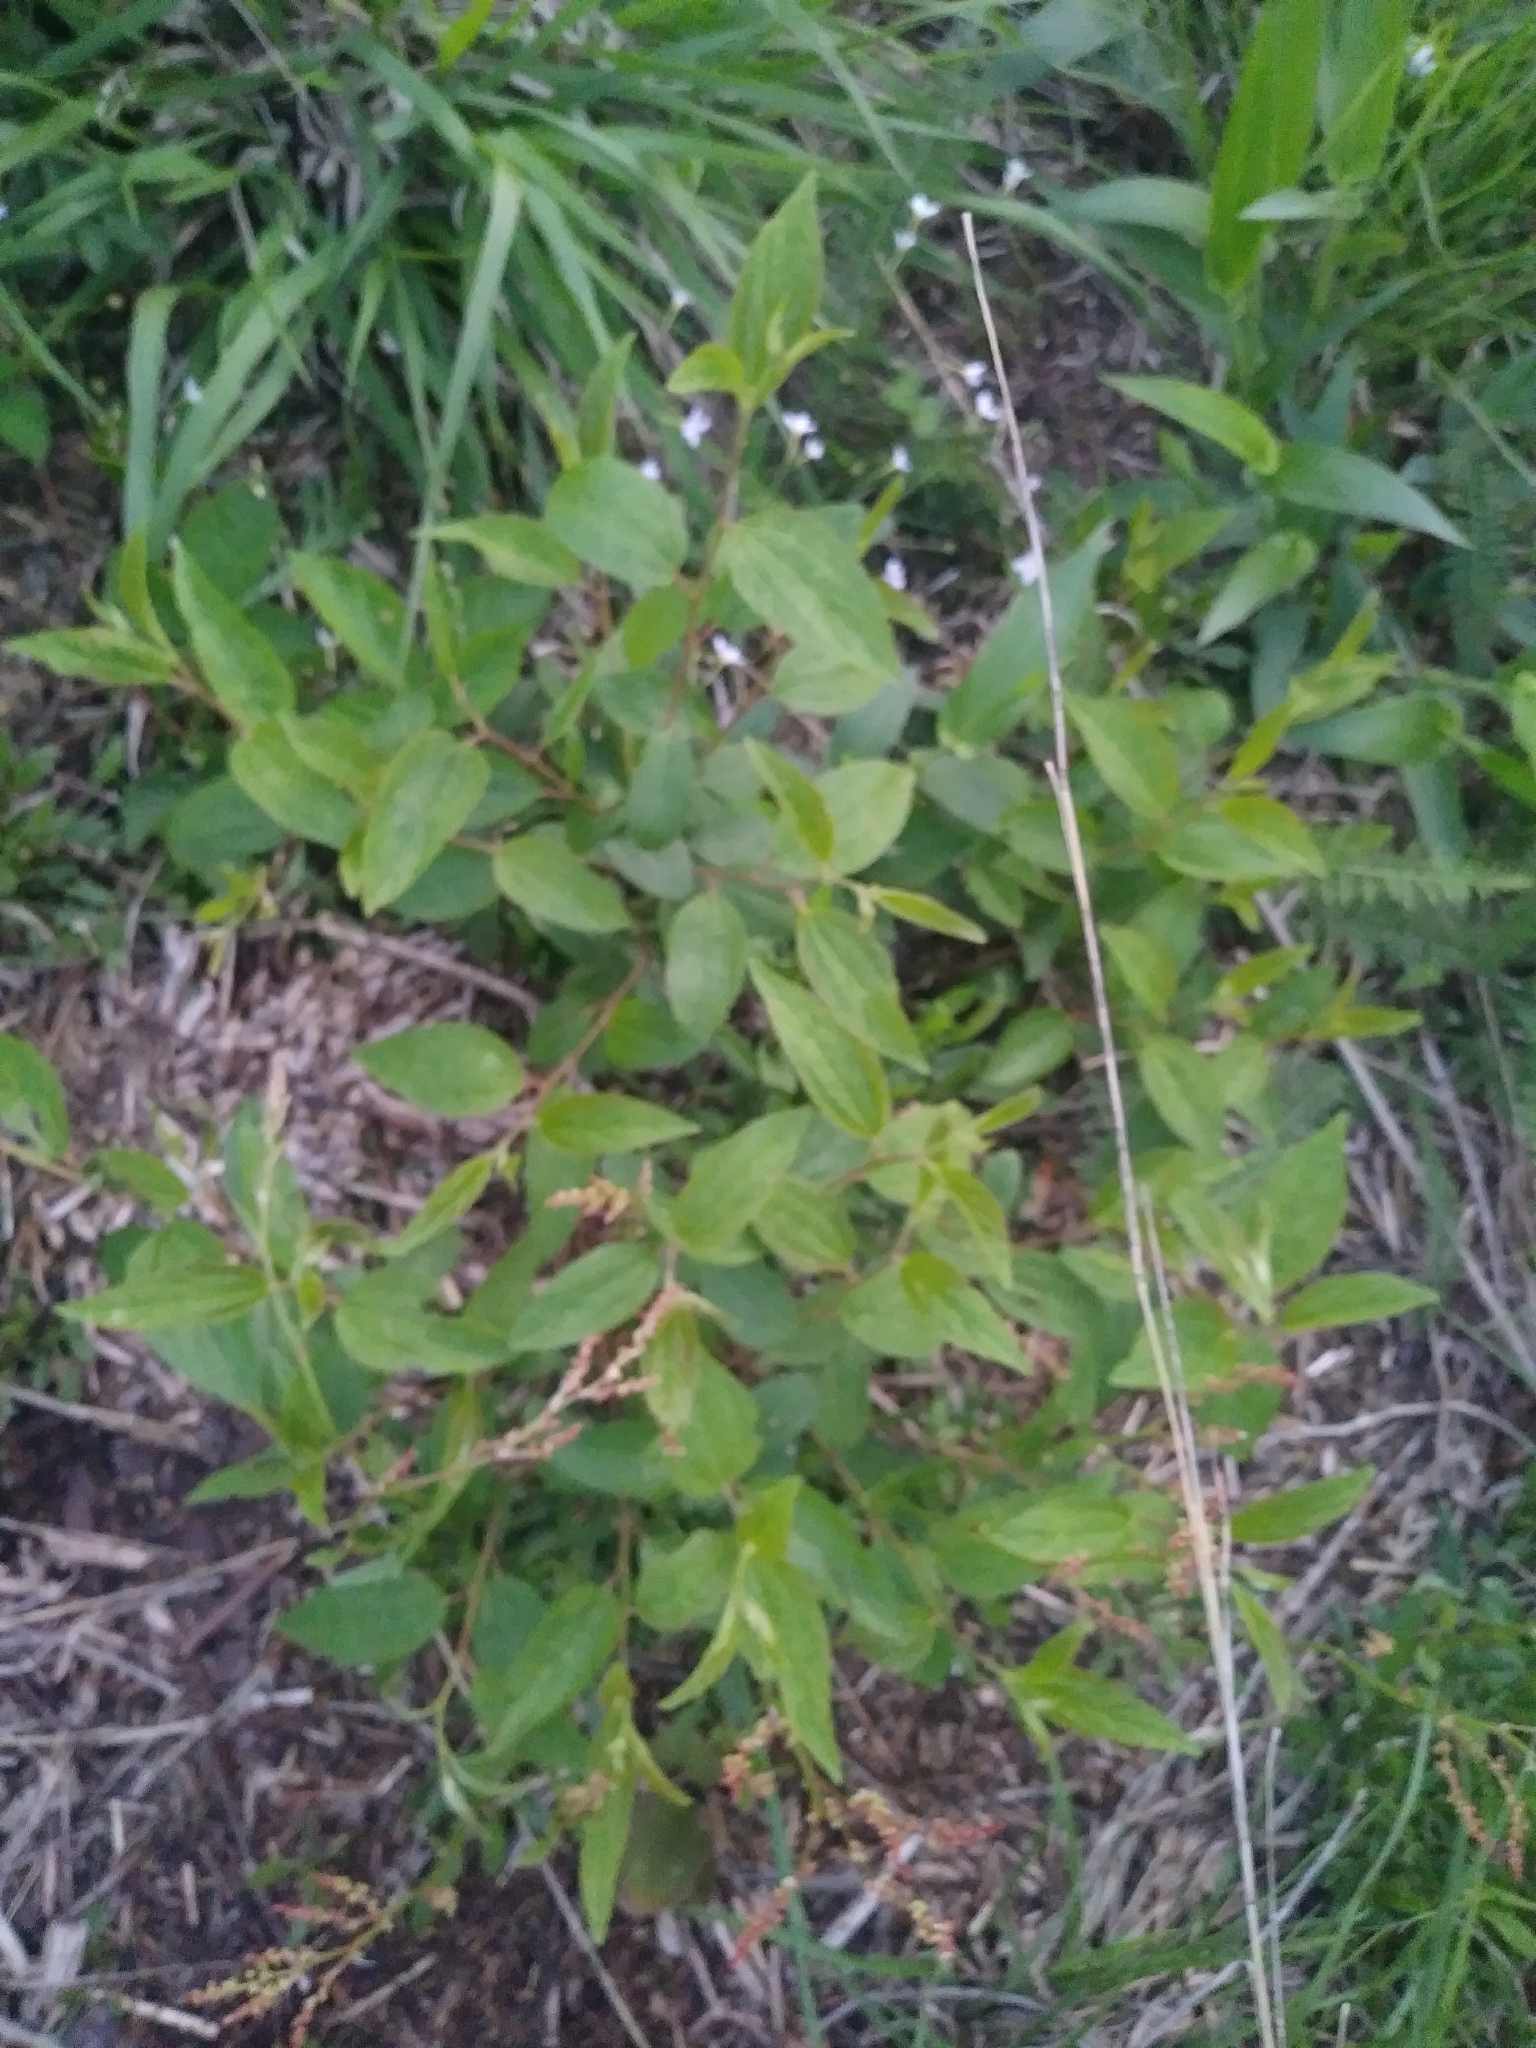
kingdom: Plantae
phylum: Tracheophyta
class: Magnoliopsida
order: Rosales
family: Rhamnaceae
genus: Ceanothus
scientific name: Ceanothus americanus
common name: Redroot
